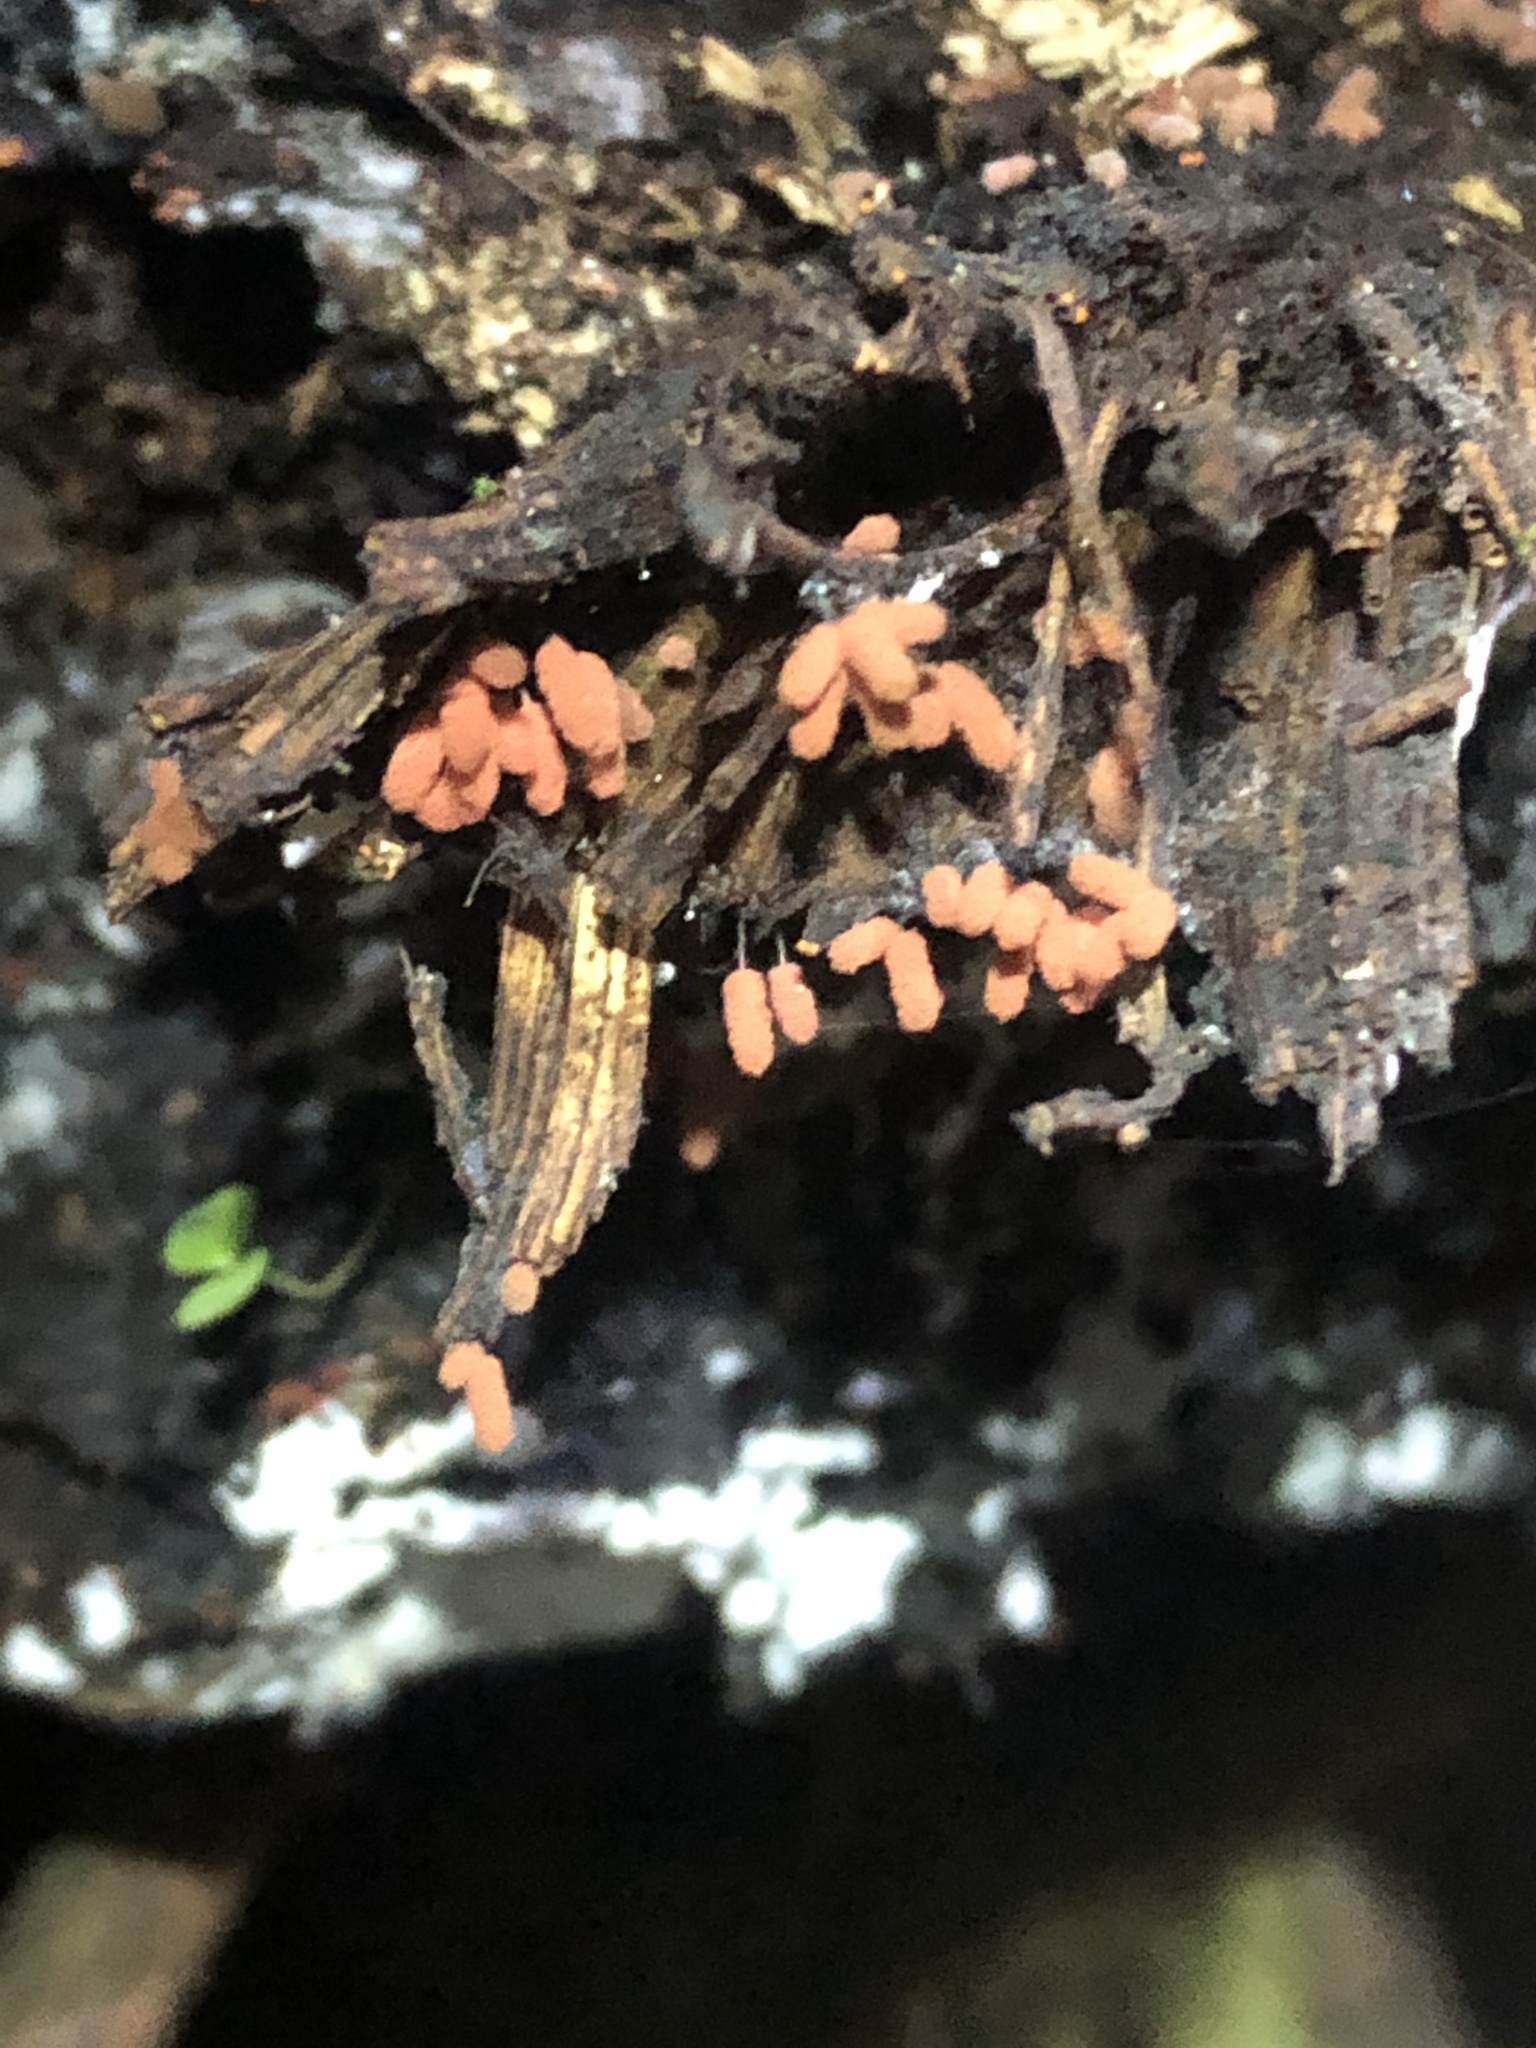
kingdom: Protozoa
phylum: Mycetozoa
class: Myxomycetes
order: Trichiales
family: Arcyriaceae
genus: Arcyria
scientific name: Arcyria denudata
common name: Carnival candy slime mold
